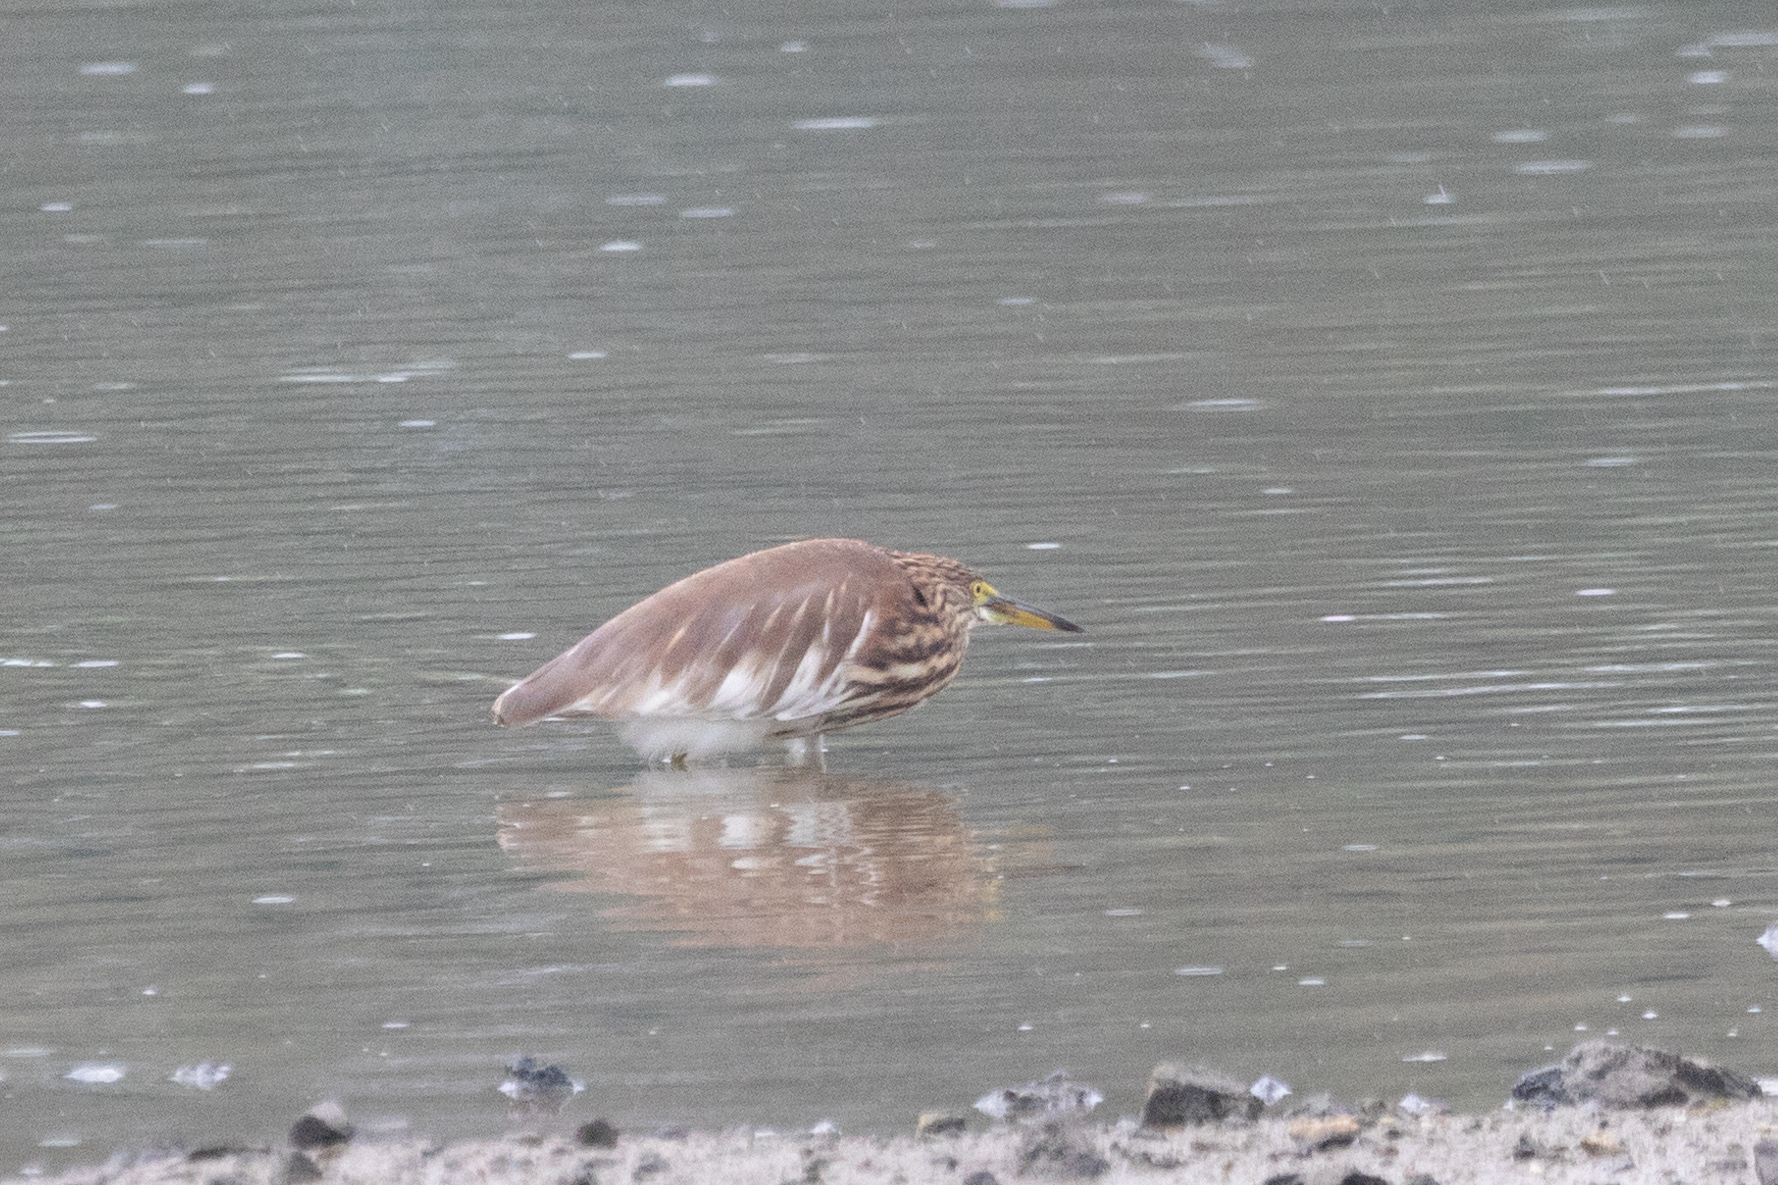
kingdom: Animalia
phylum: Chordata
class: Aves
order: Pelecaniformes
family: Ardeidae
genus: Ardeola
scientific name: Ardeola bacchus
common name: Chinese pond heron
